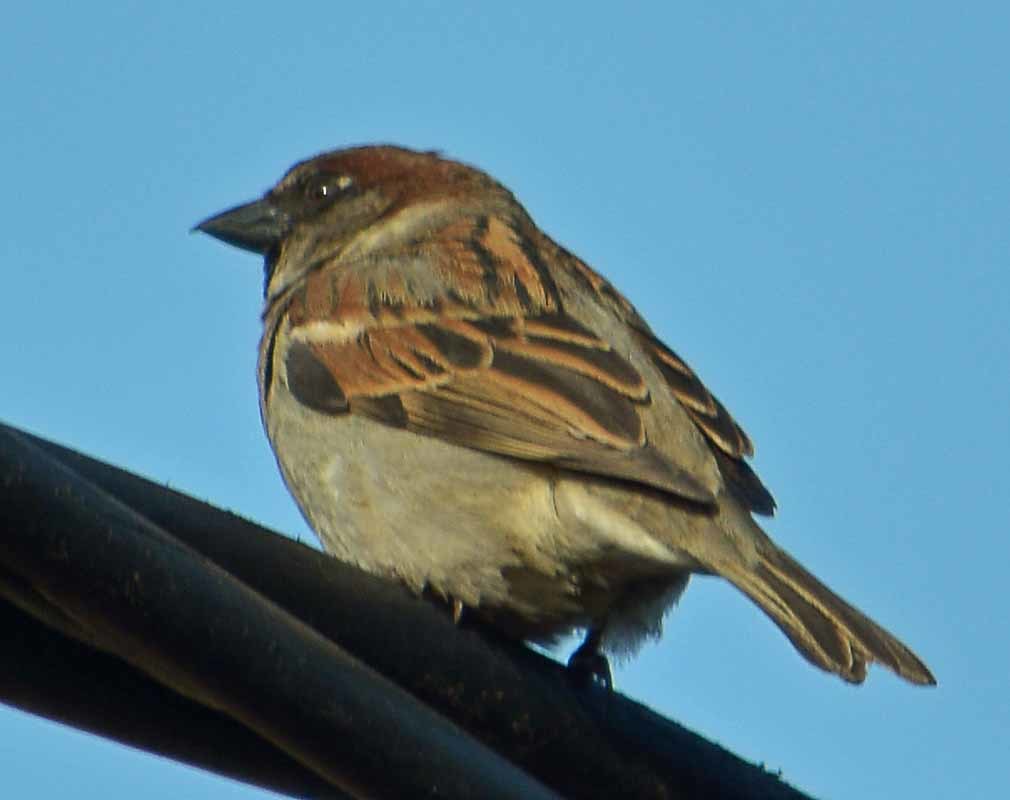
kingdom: Animalia
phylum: Chordata
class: Aves
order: Passeriformes
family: Passeridae
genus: Passer
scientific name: Passer domesticus
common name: House sparrow
